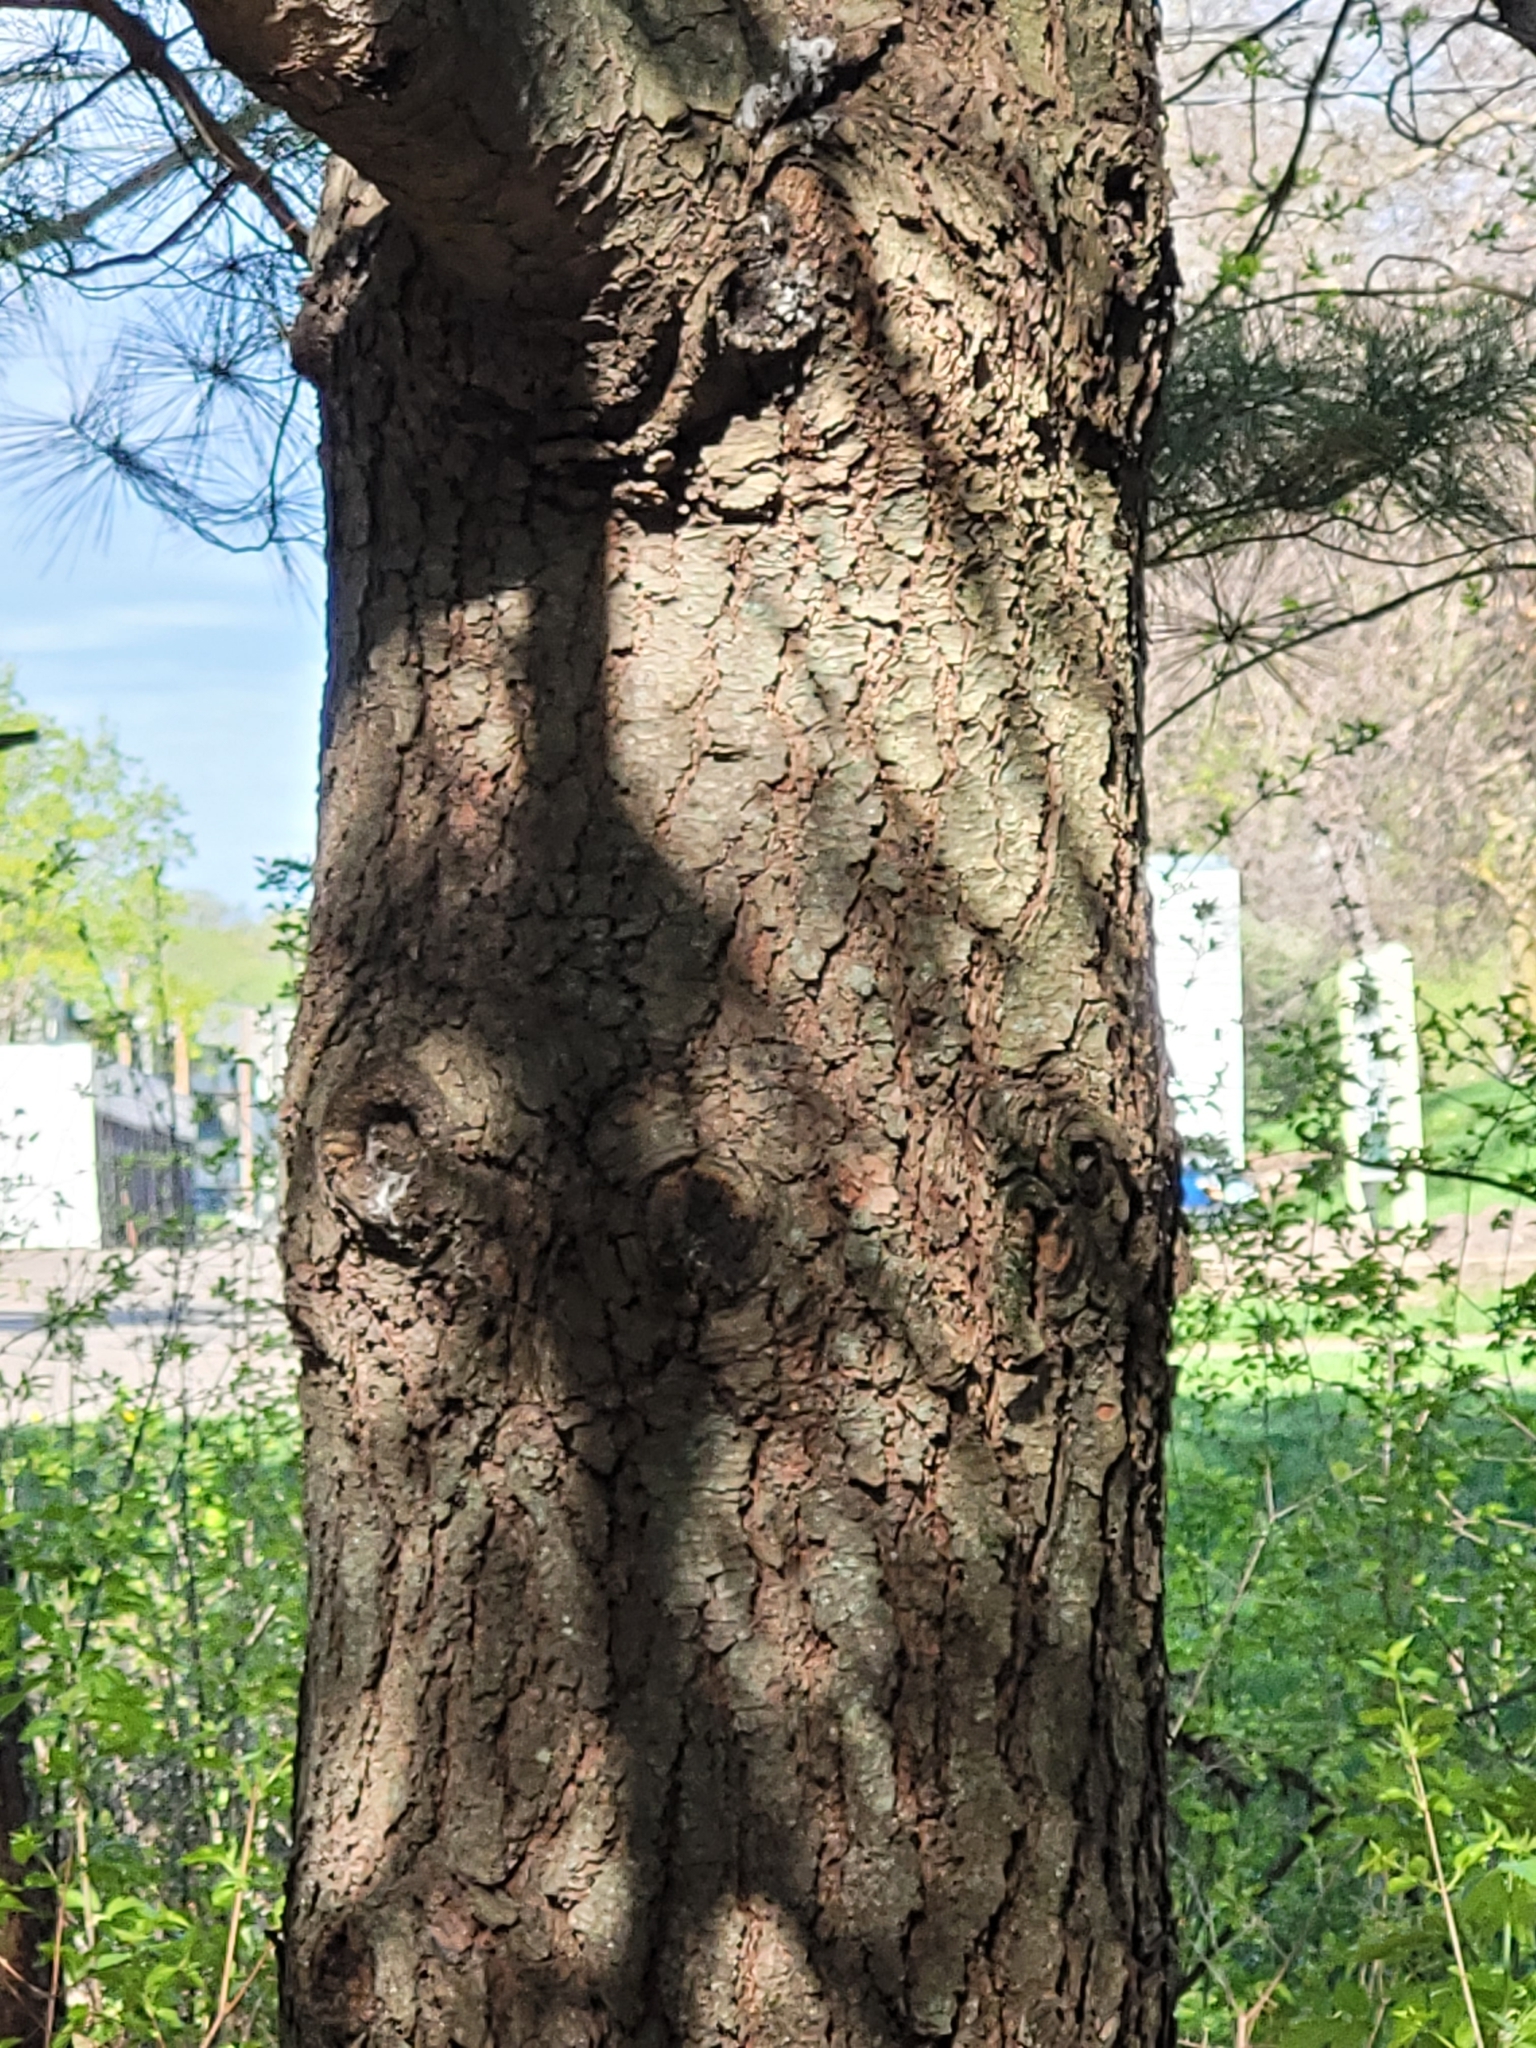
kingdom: Plantae
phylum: Tracheophyta
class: Pinopsida
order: Pinales
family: Pinaceae
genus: Pinus
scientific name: Pinus strobus
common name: Weymouth pine
